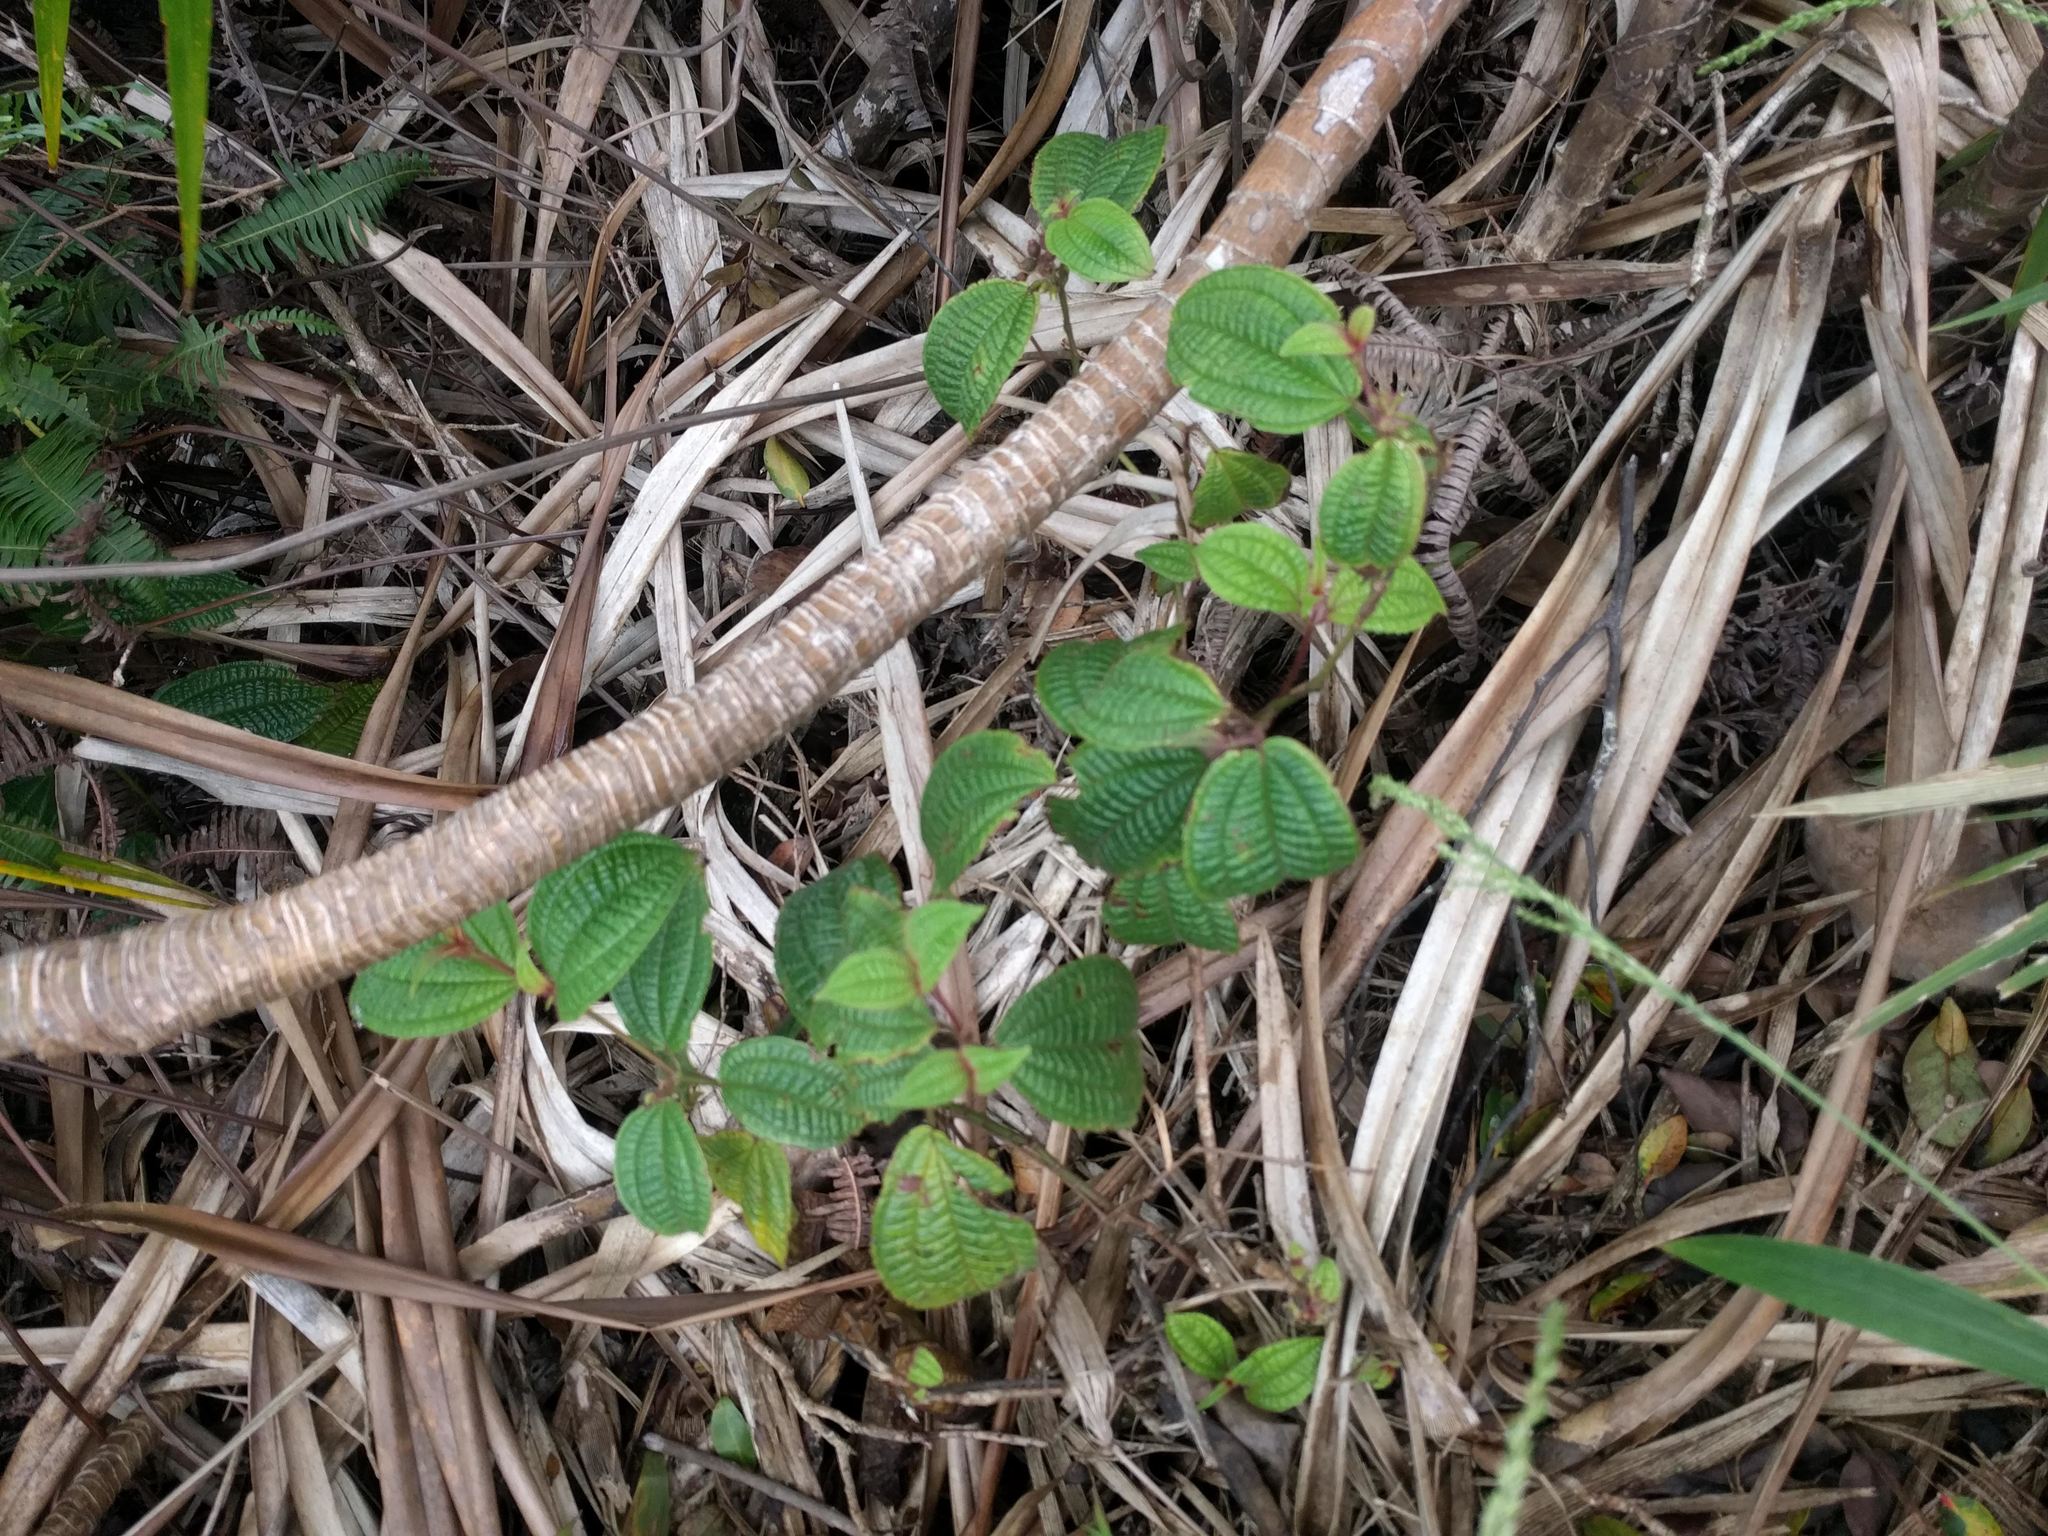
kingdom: Plantae
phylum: Tracheophyta
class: Magnoliopsida
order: Myrtales
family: Melastomataceae
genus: Miconia
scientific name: Miconia crenata
